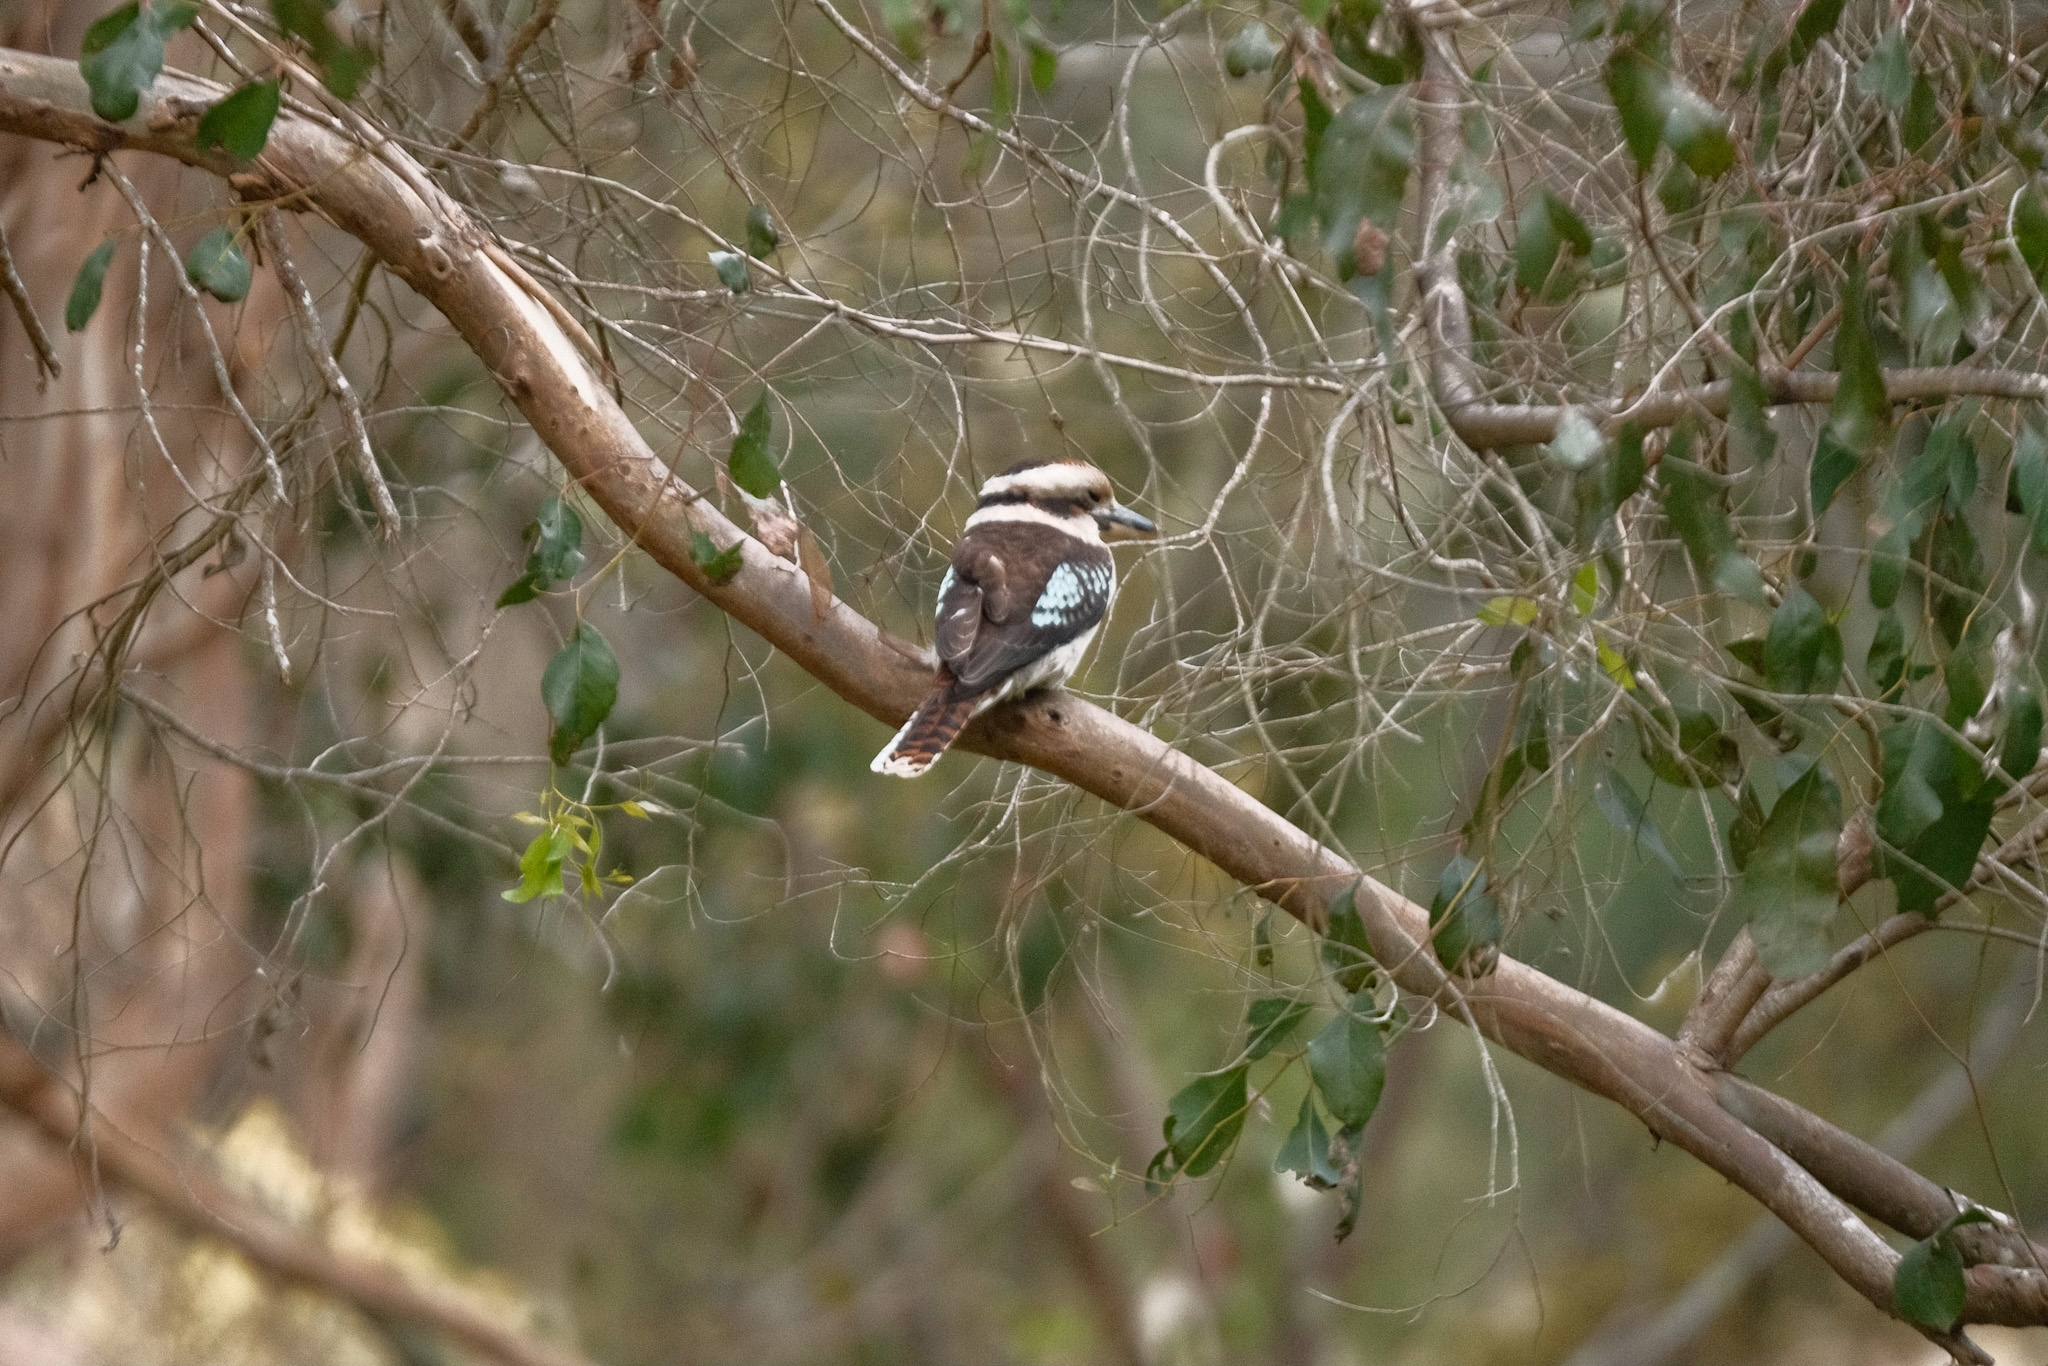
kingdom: Animalia
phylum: Chordata
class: Aves
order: Coraciiformes
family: Alcedinidae
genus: Dacelo
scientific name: Dacelo novaeguineae
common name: Laughing kookaburra
